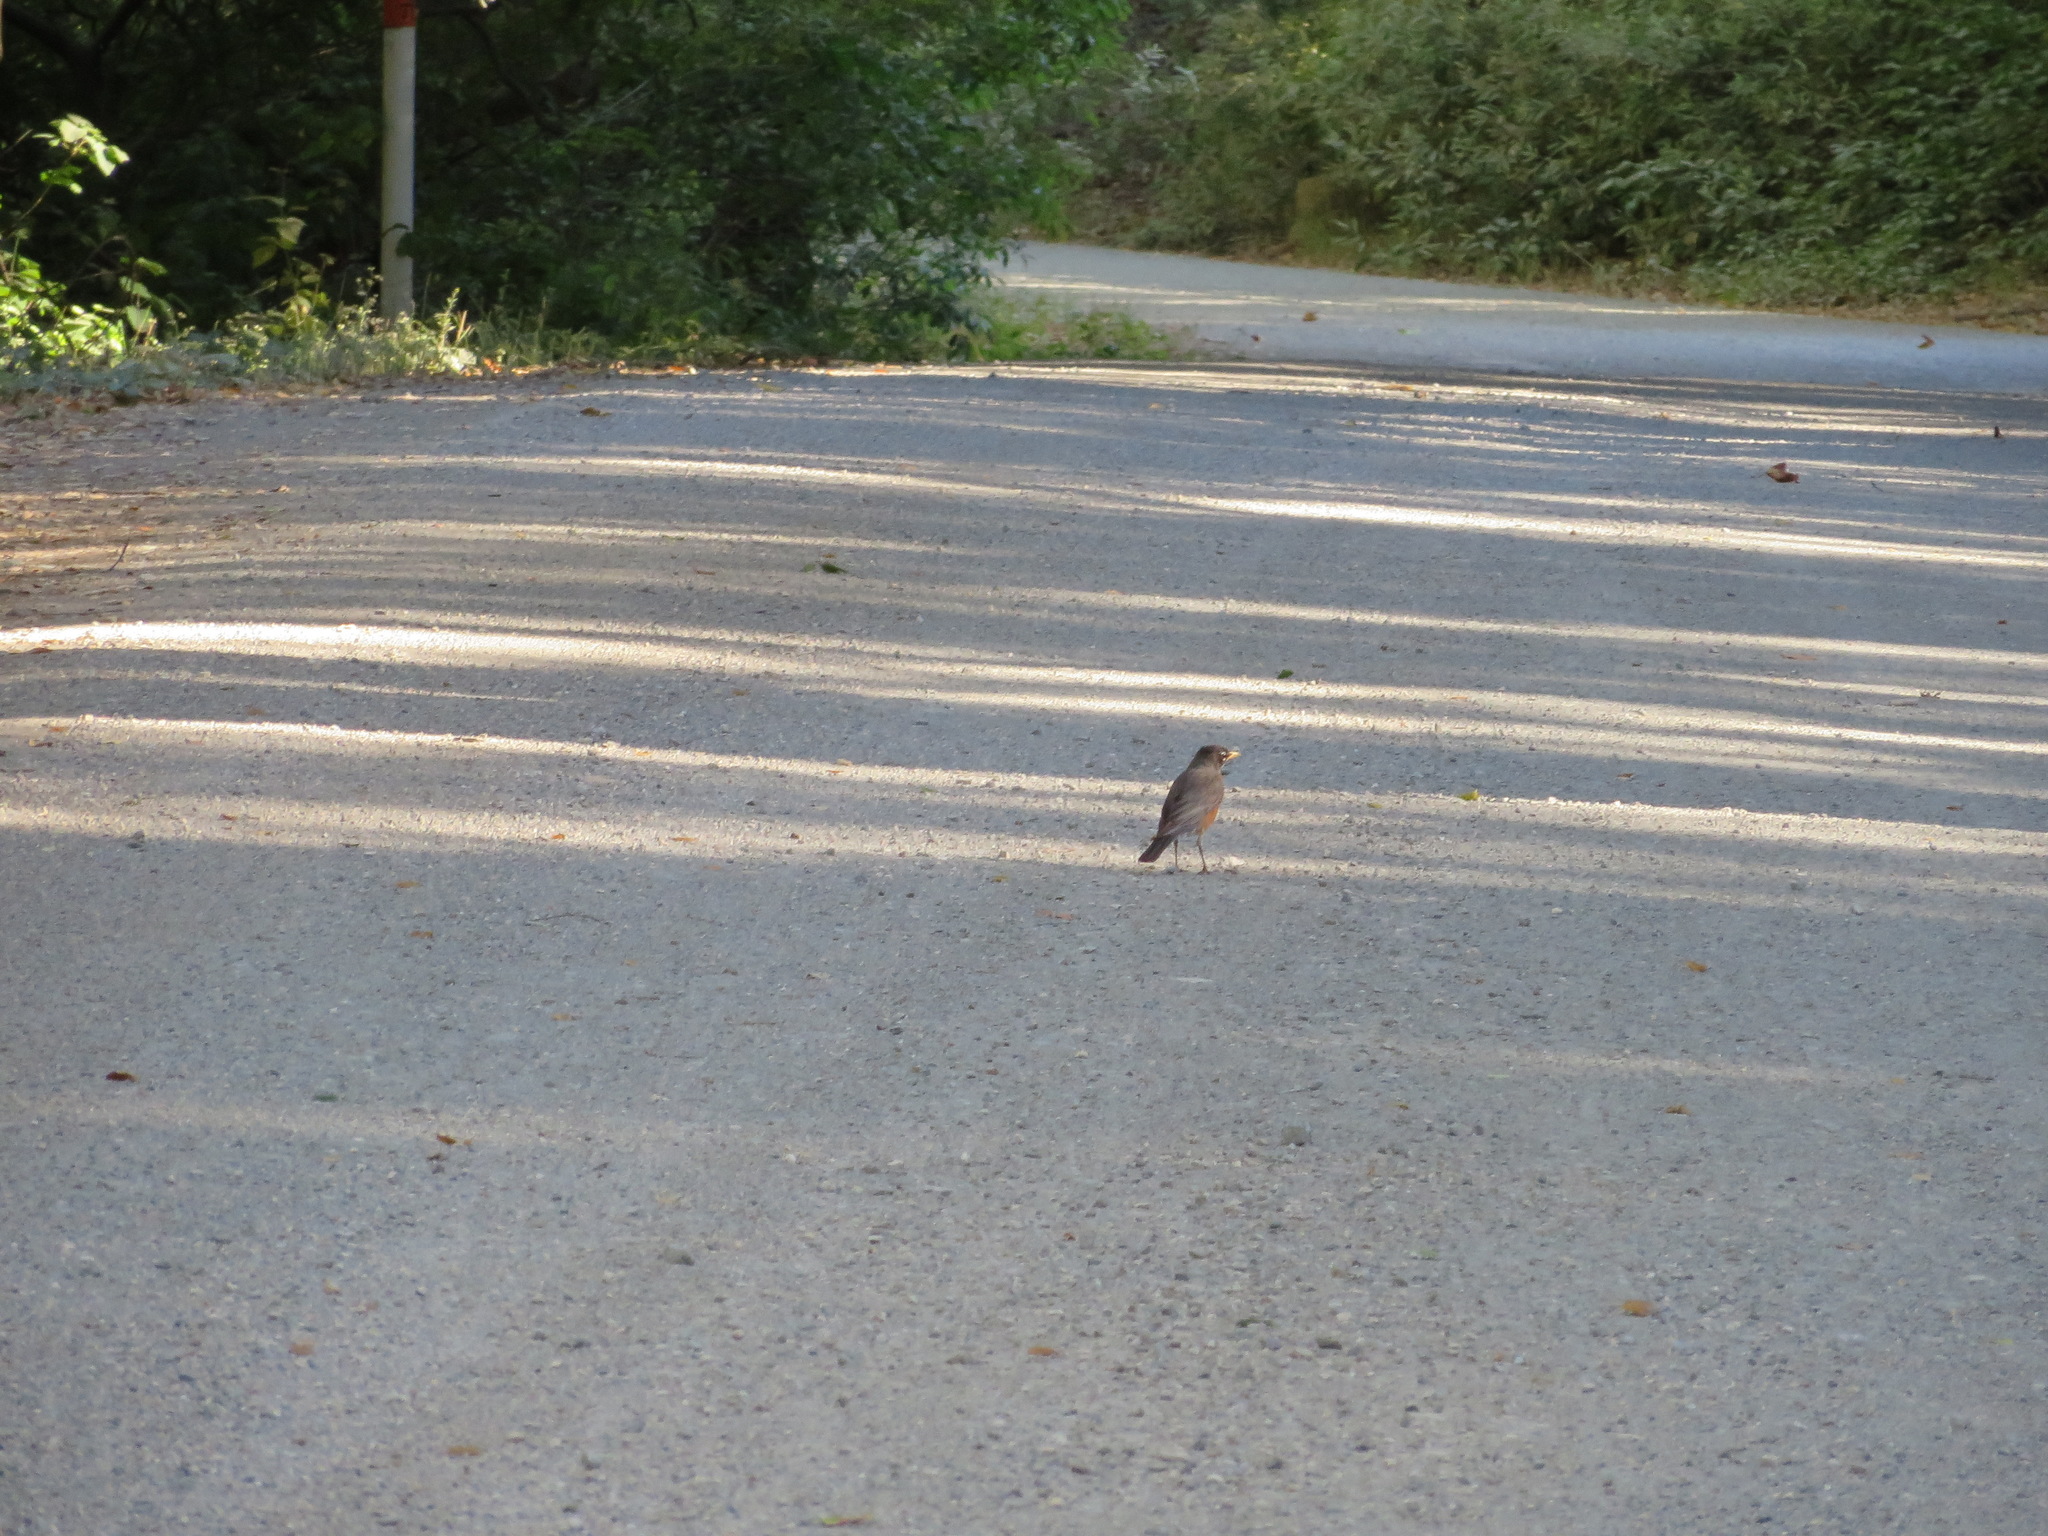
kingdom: Animalia
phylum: Chordata
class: Aves
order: Passeriformes
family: Turdidae
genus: Turdus
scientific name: Turdus migratorius
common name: American robin
